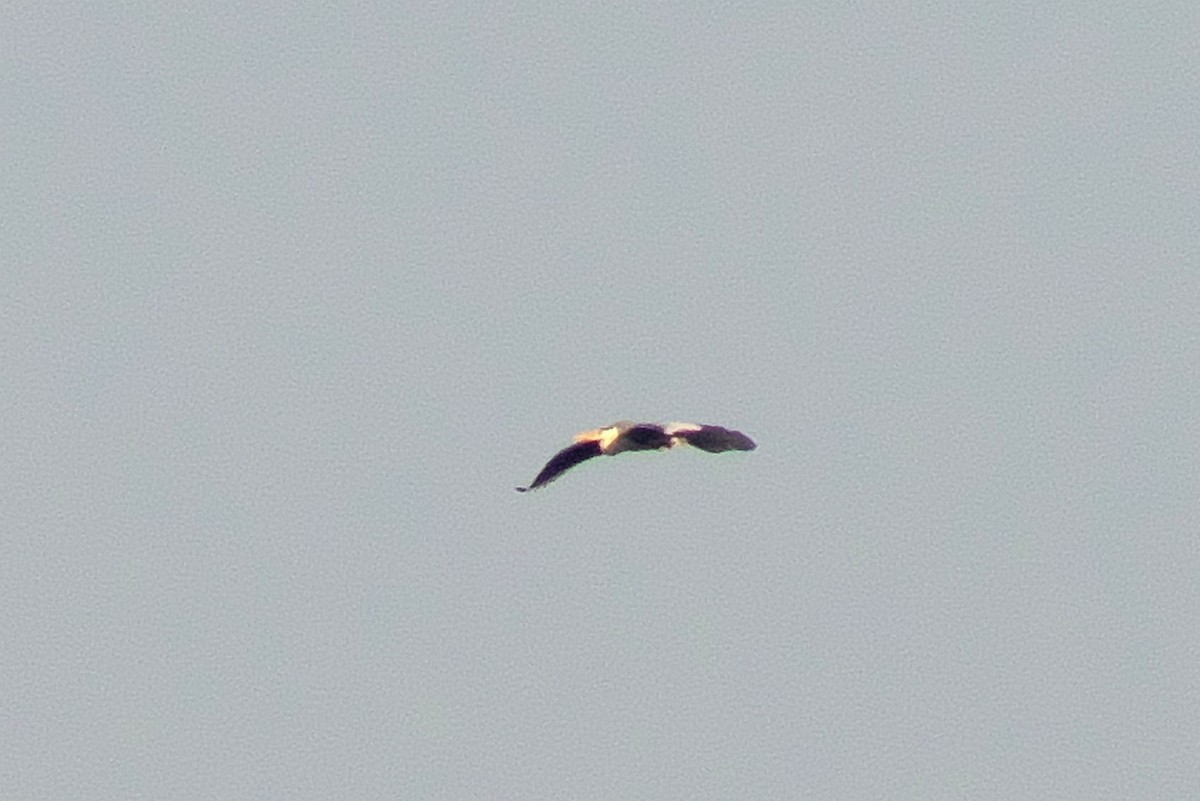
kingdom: Animalia
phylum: Chordata
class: Aves
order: Pelecaniformes
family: Ardeidae
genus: Ardea
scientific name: Ardea cinerea
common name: Grey heron
